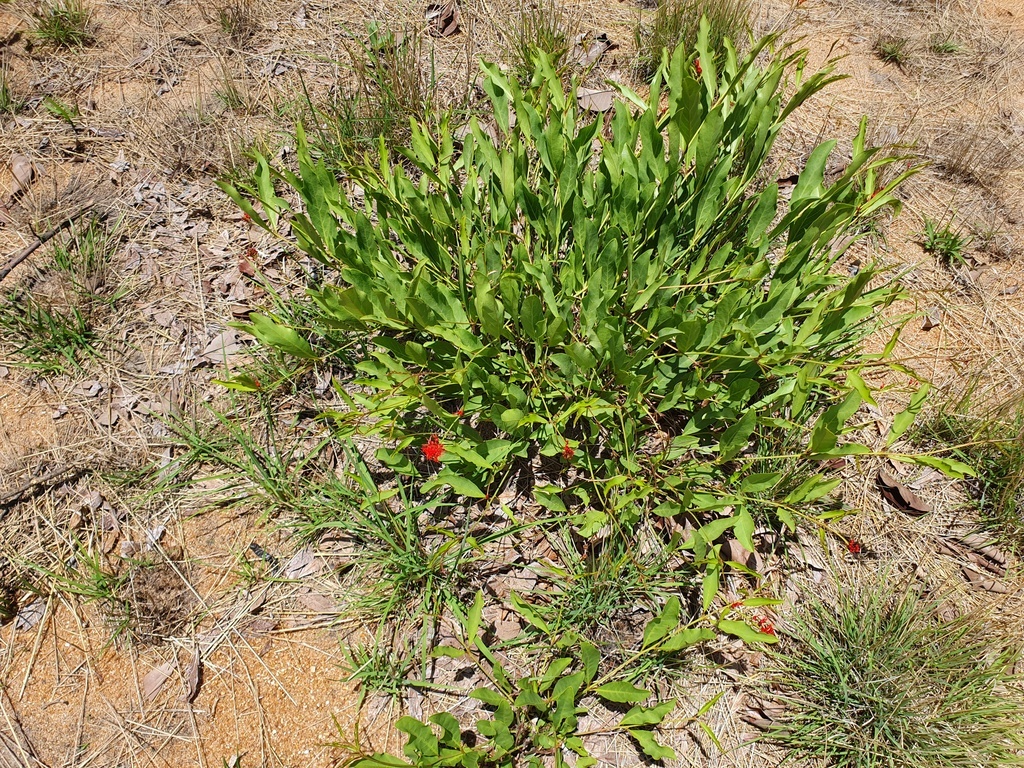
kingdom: Plantae
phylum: Tracheophyta
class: Magnoliopsida
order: Myrtales
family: Combretaceae
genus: Combretum
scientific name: Combretum oatesii
